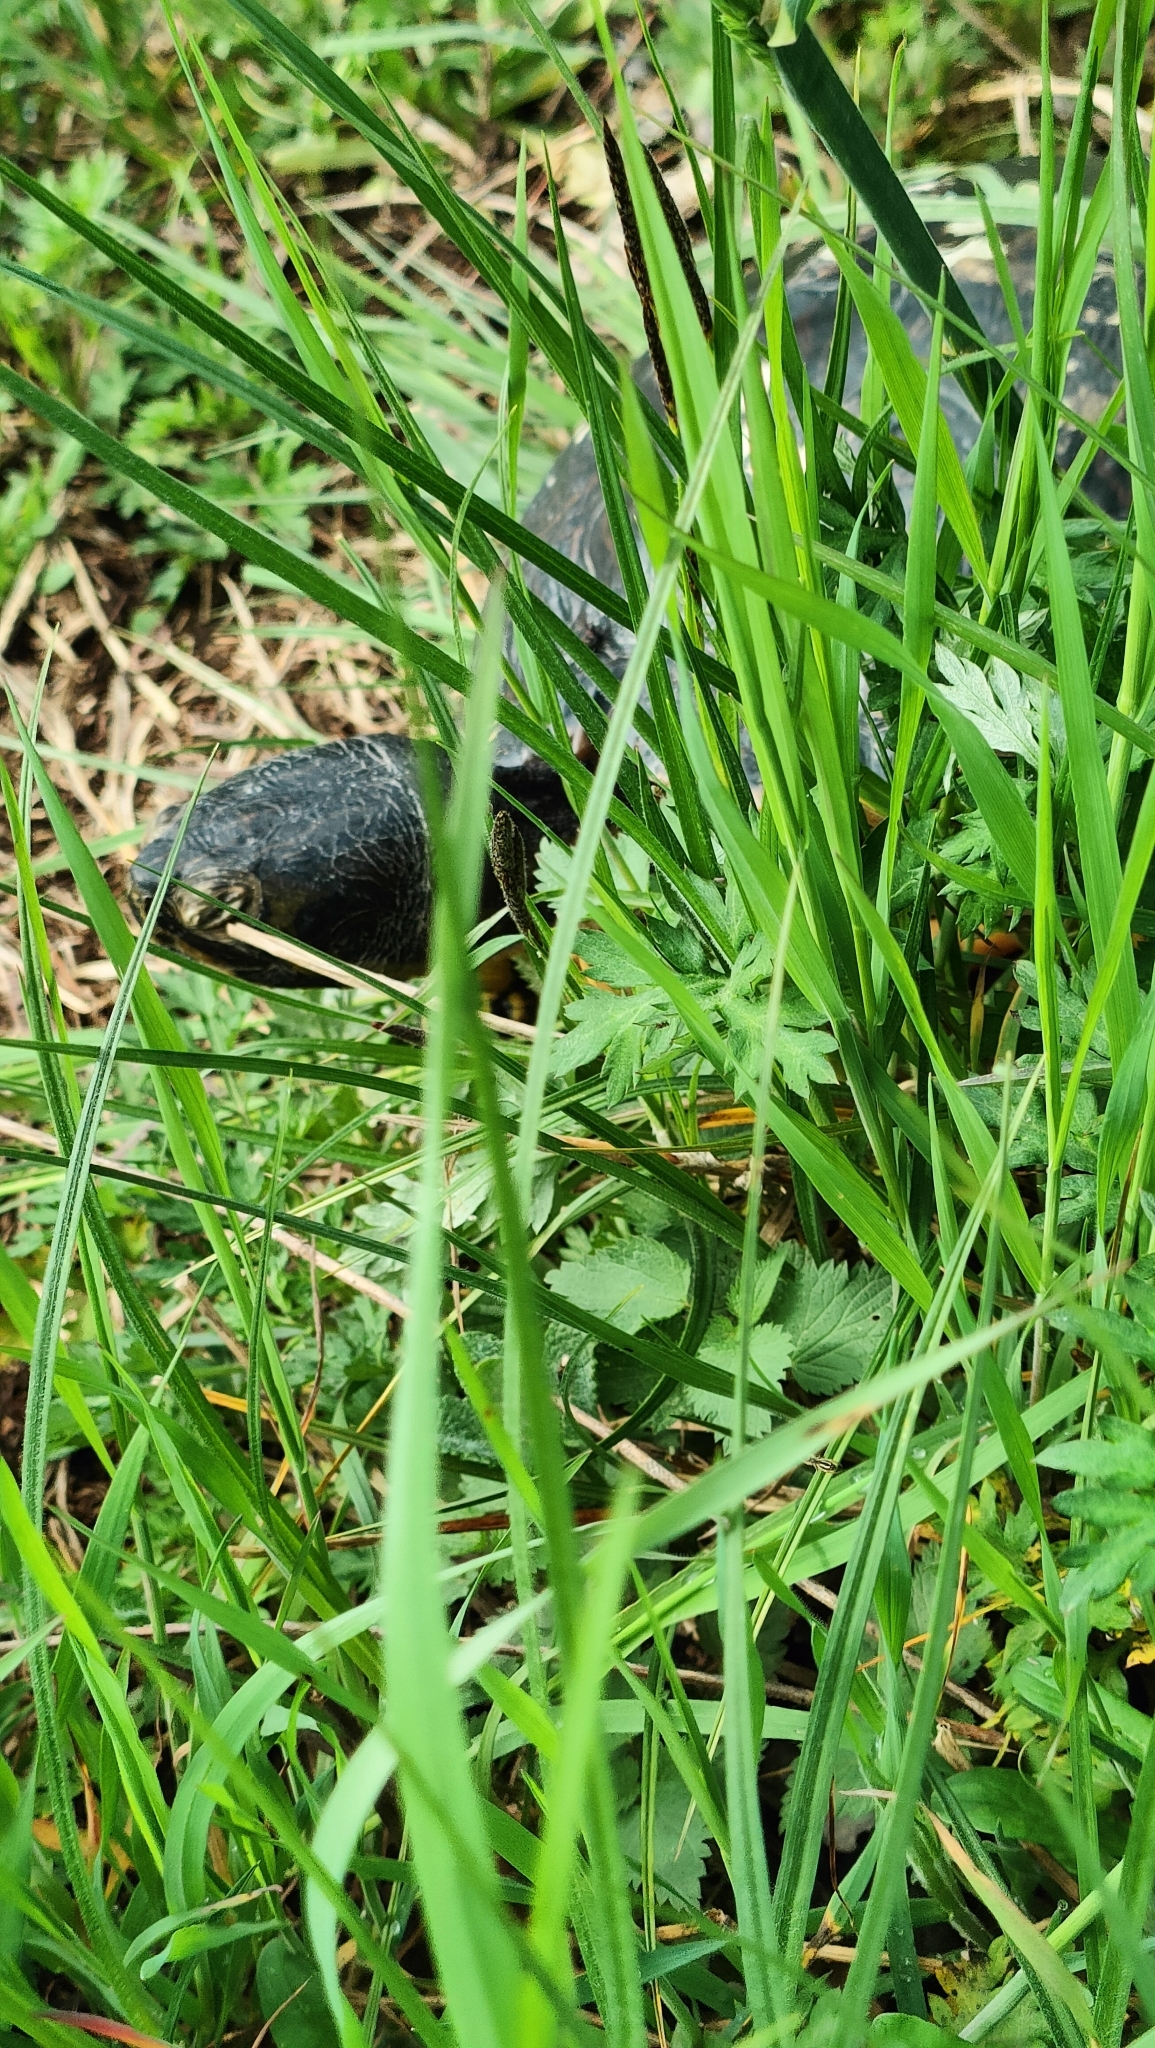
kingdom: Animalia
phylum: Chordata
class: Testudines
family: Emydidae
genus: Trachemys
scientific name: Trachemys scripta
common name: Slider
